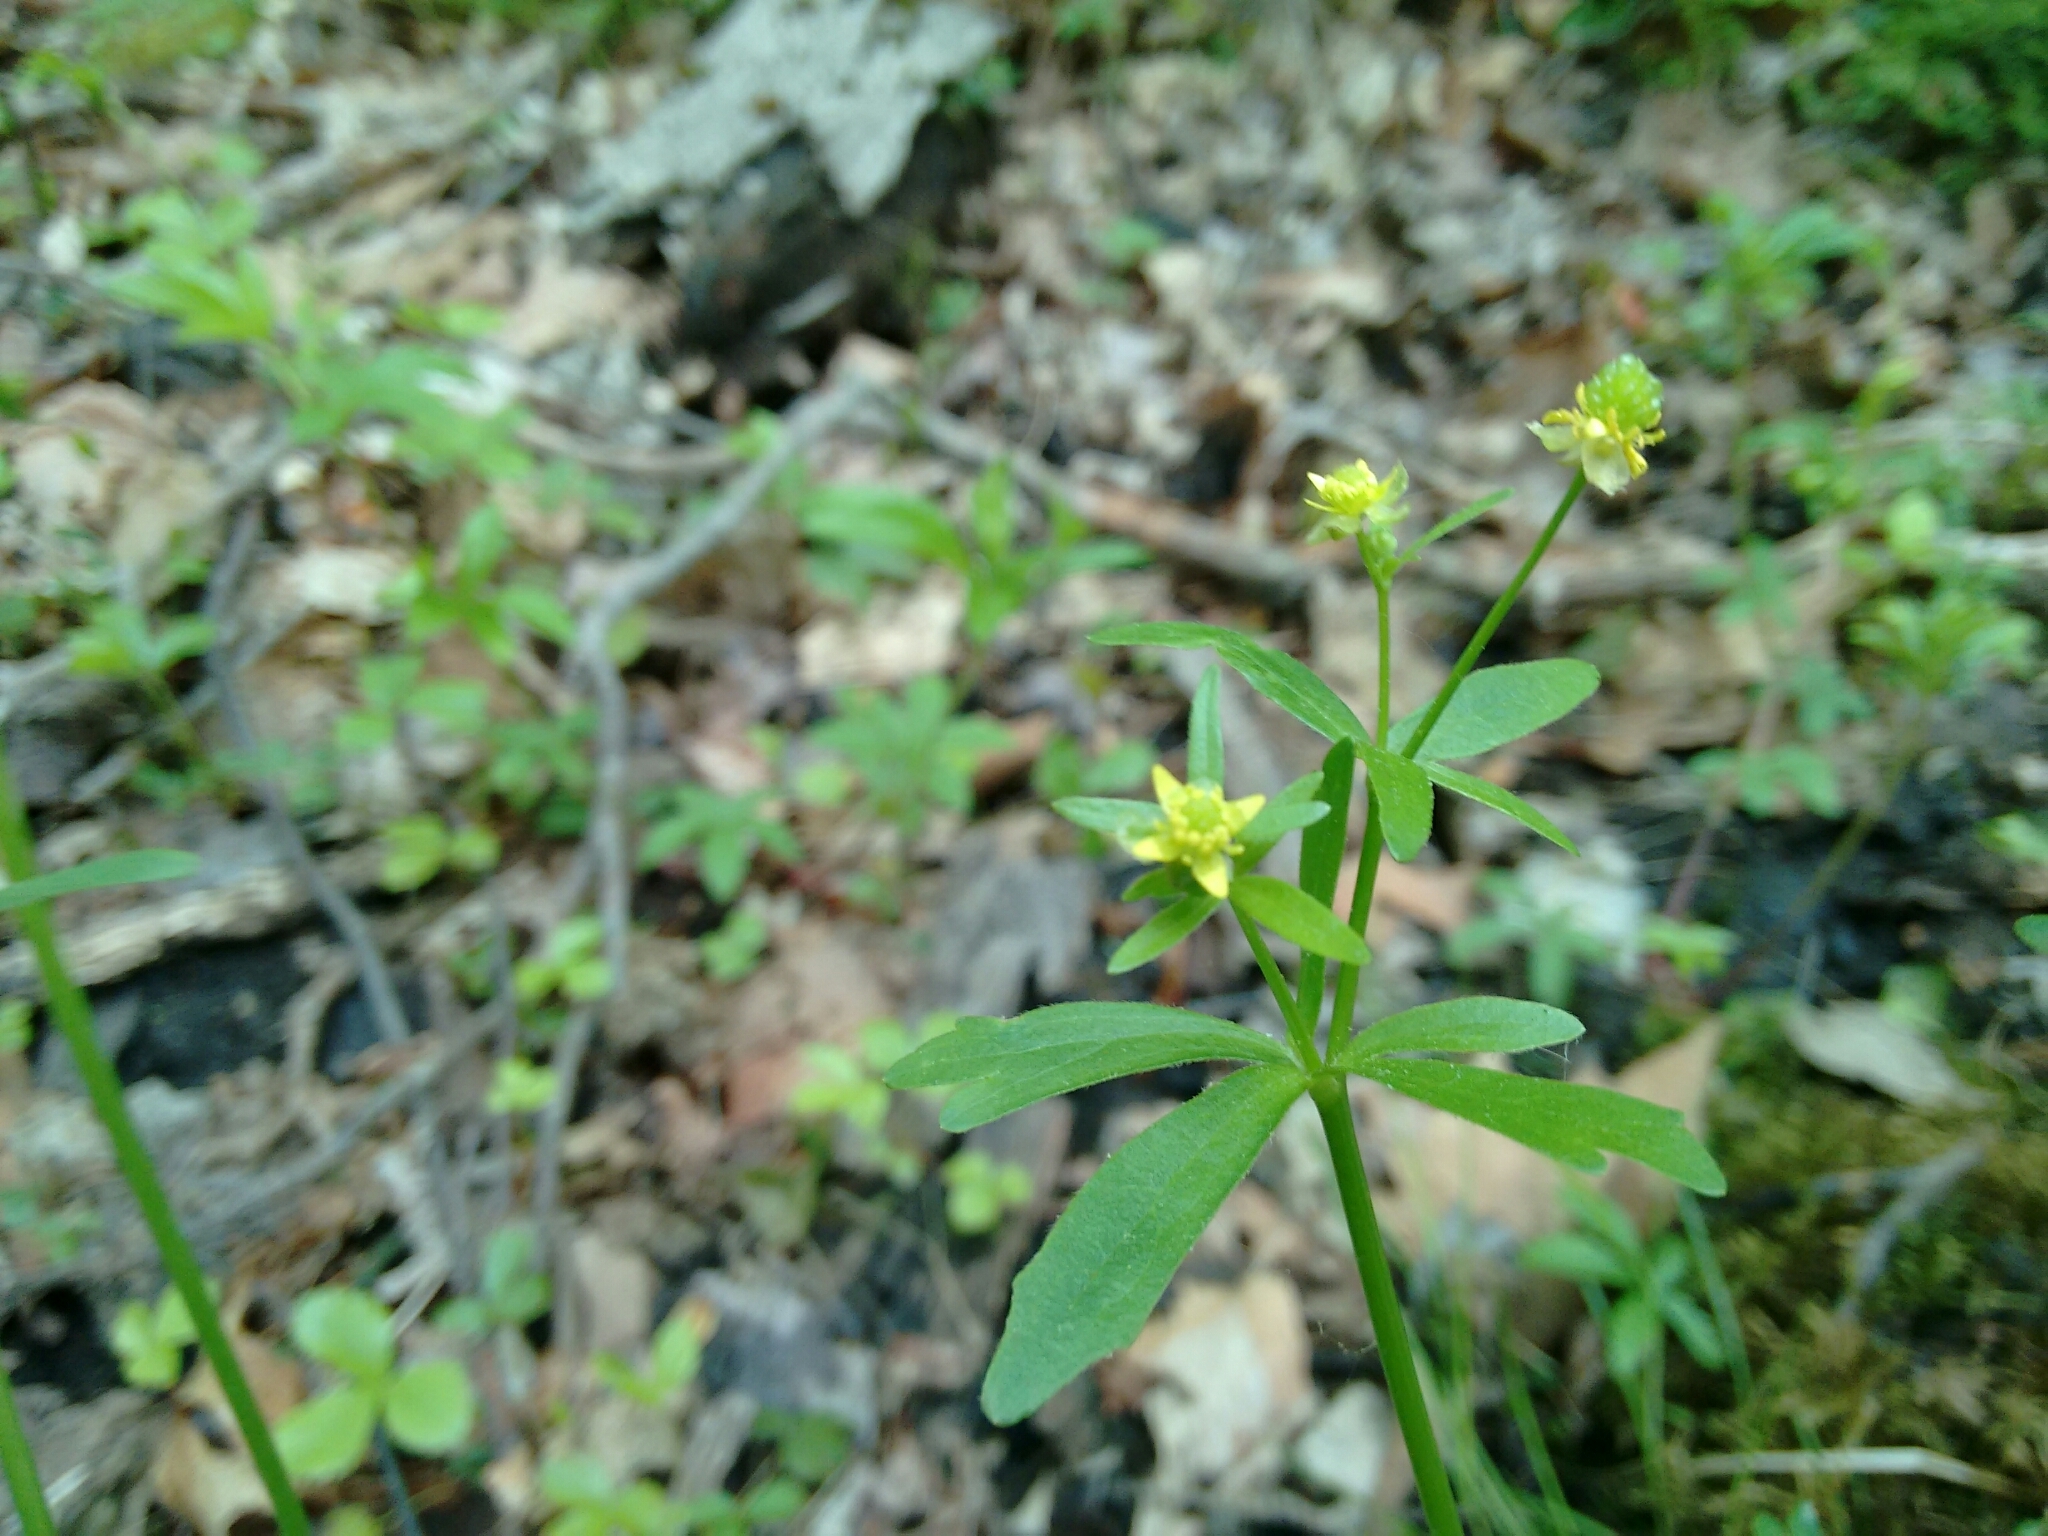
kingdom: Plantae
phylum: Tracheophyta
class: Magnoliopsida
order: Ranunculales
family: Ranunculaceae
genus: Ranunculus
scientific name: Ranunculus abortivus
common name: Early wood buttercup
